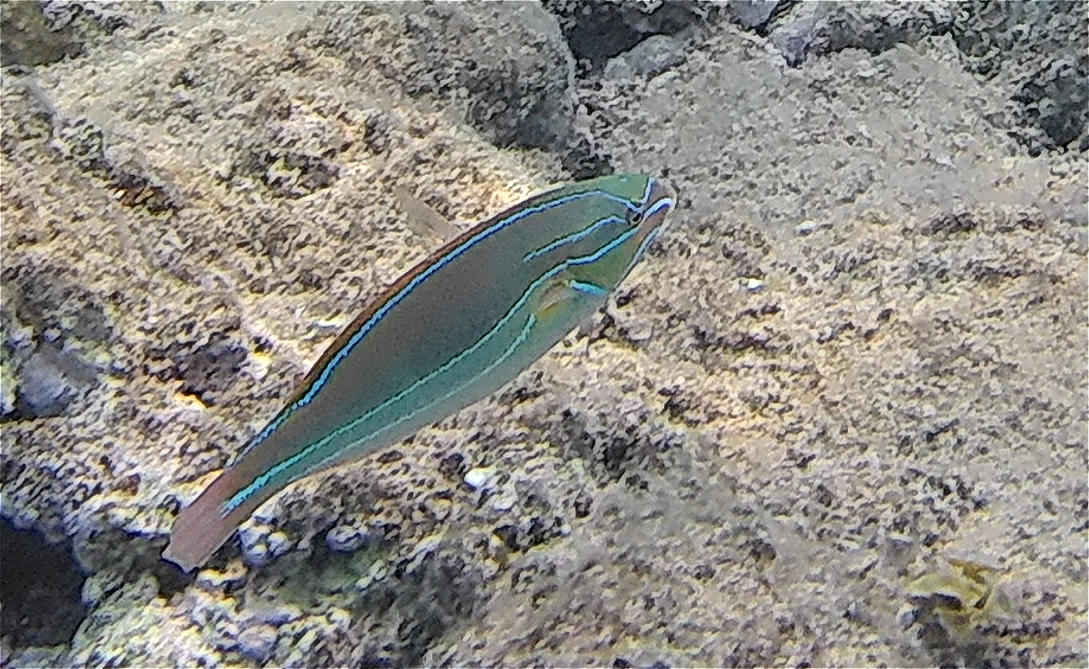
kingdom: Animalia
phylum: Chordata
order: Perciformes
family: Labridae
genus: Stethojulis
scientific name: Stethojulis albovittata
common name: Bluelined wrasse
